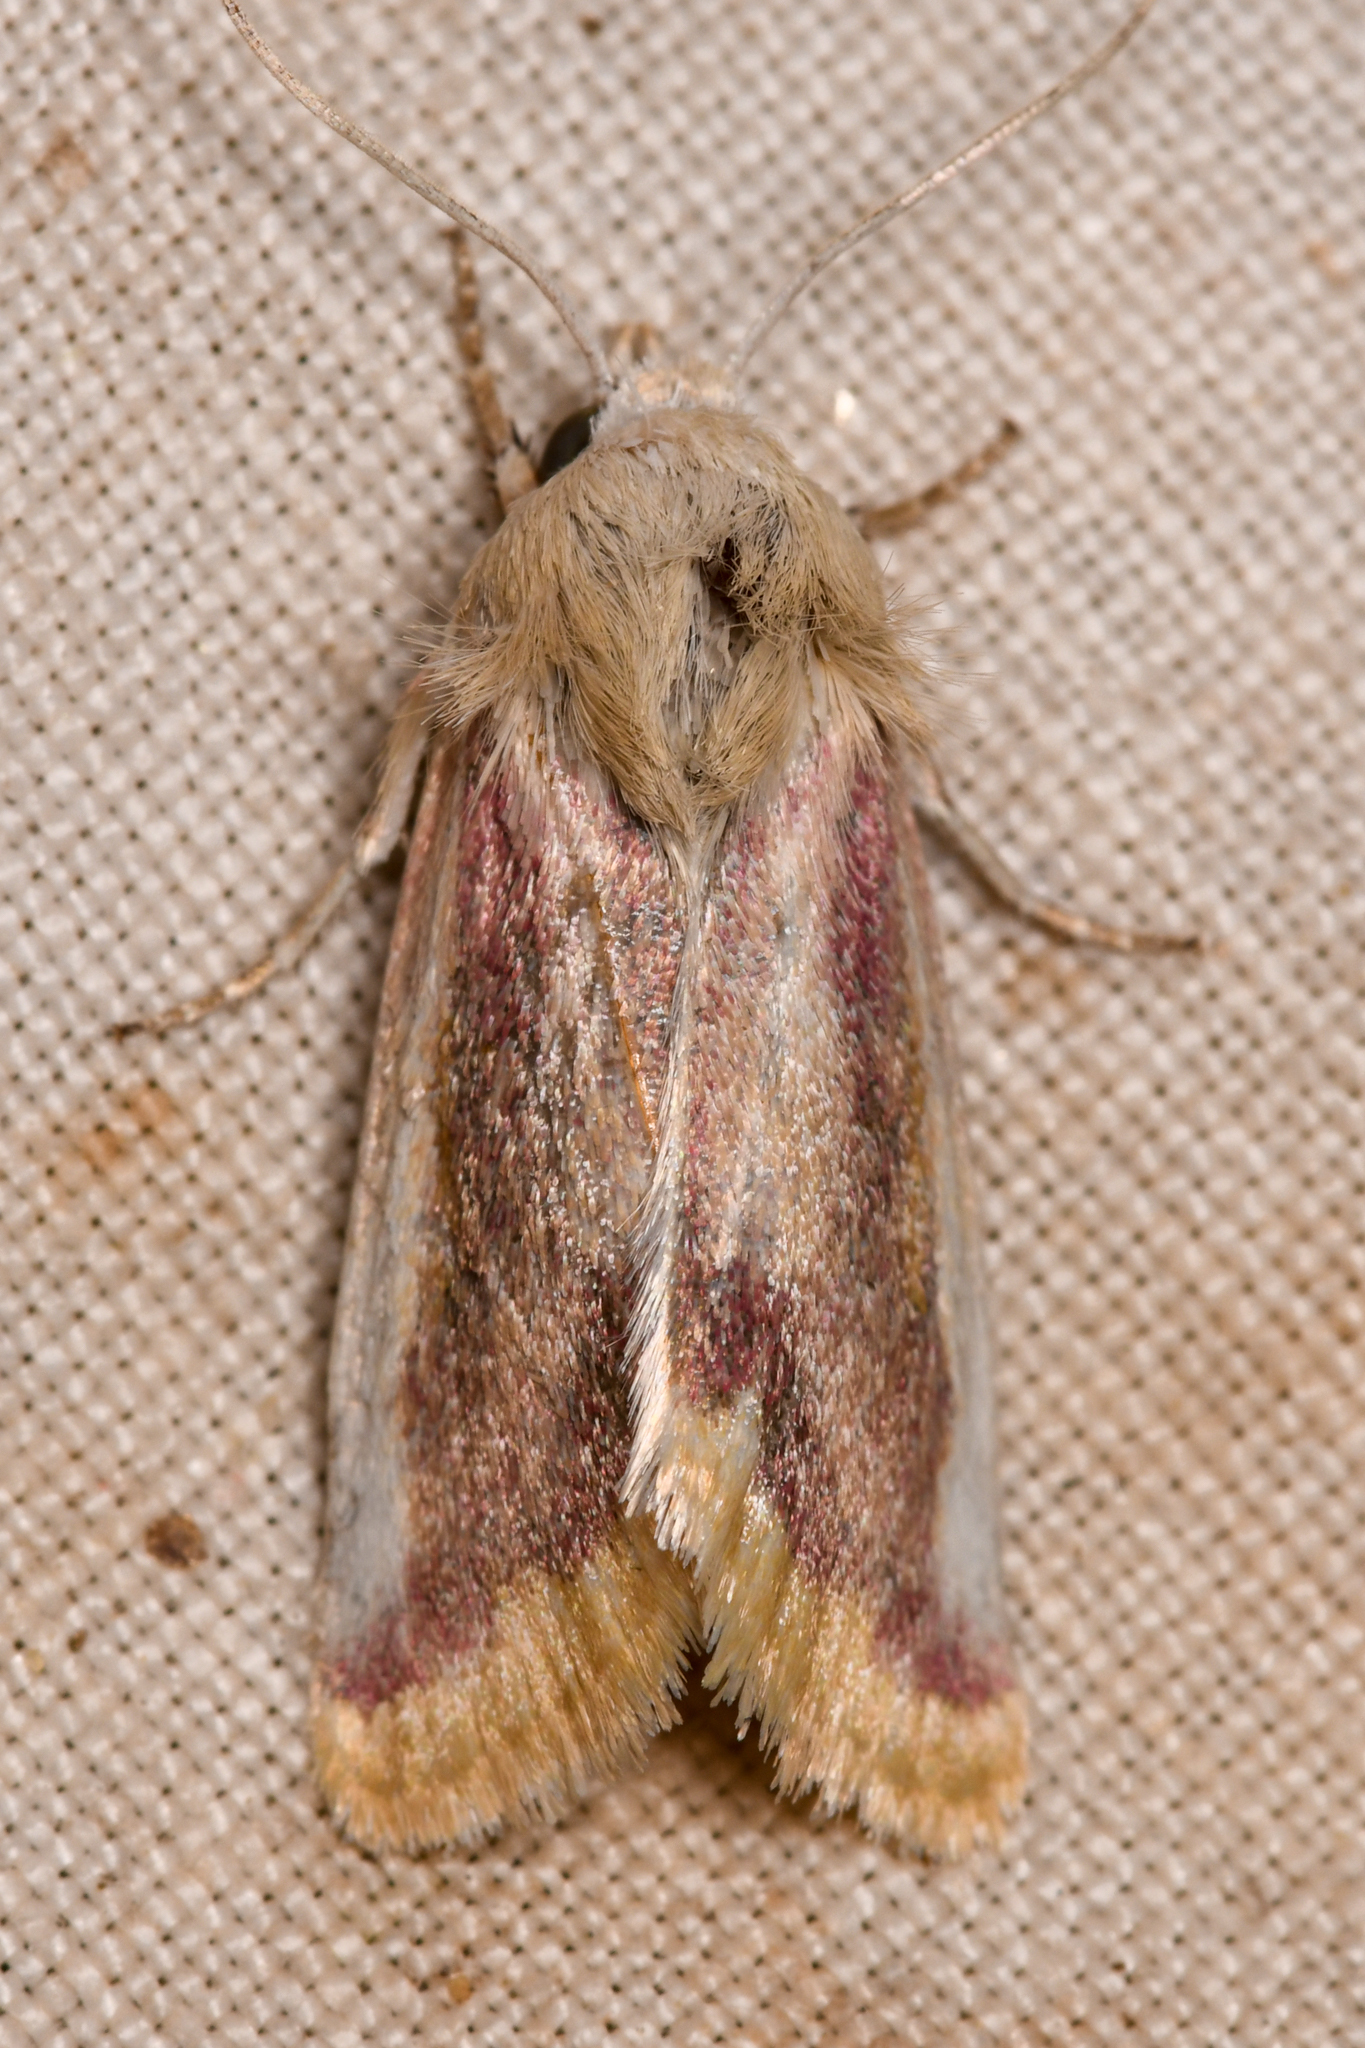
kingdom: Animalia
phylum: Arthropoda
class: Insecta
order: Lepidoptera
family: Noctuidae
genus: Schinia
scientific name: Schinia niveicosta
